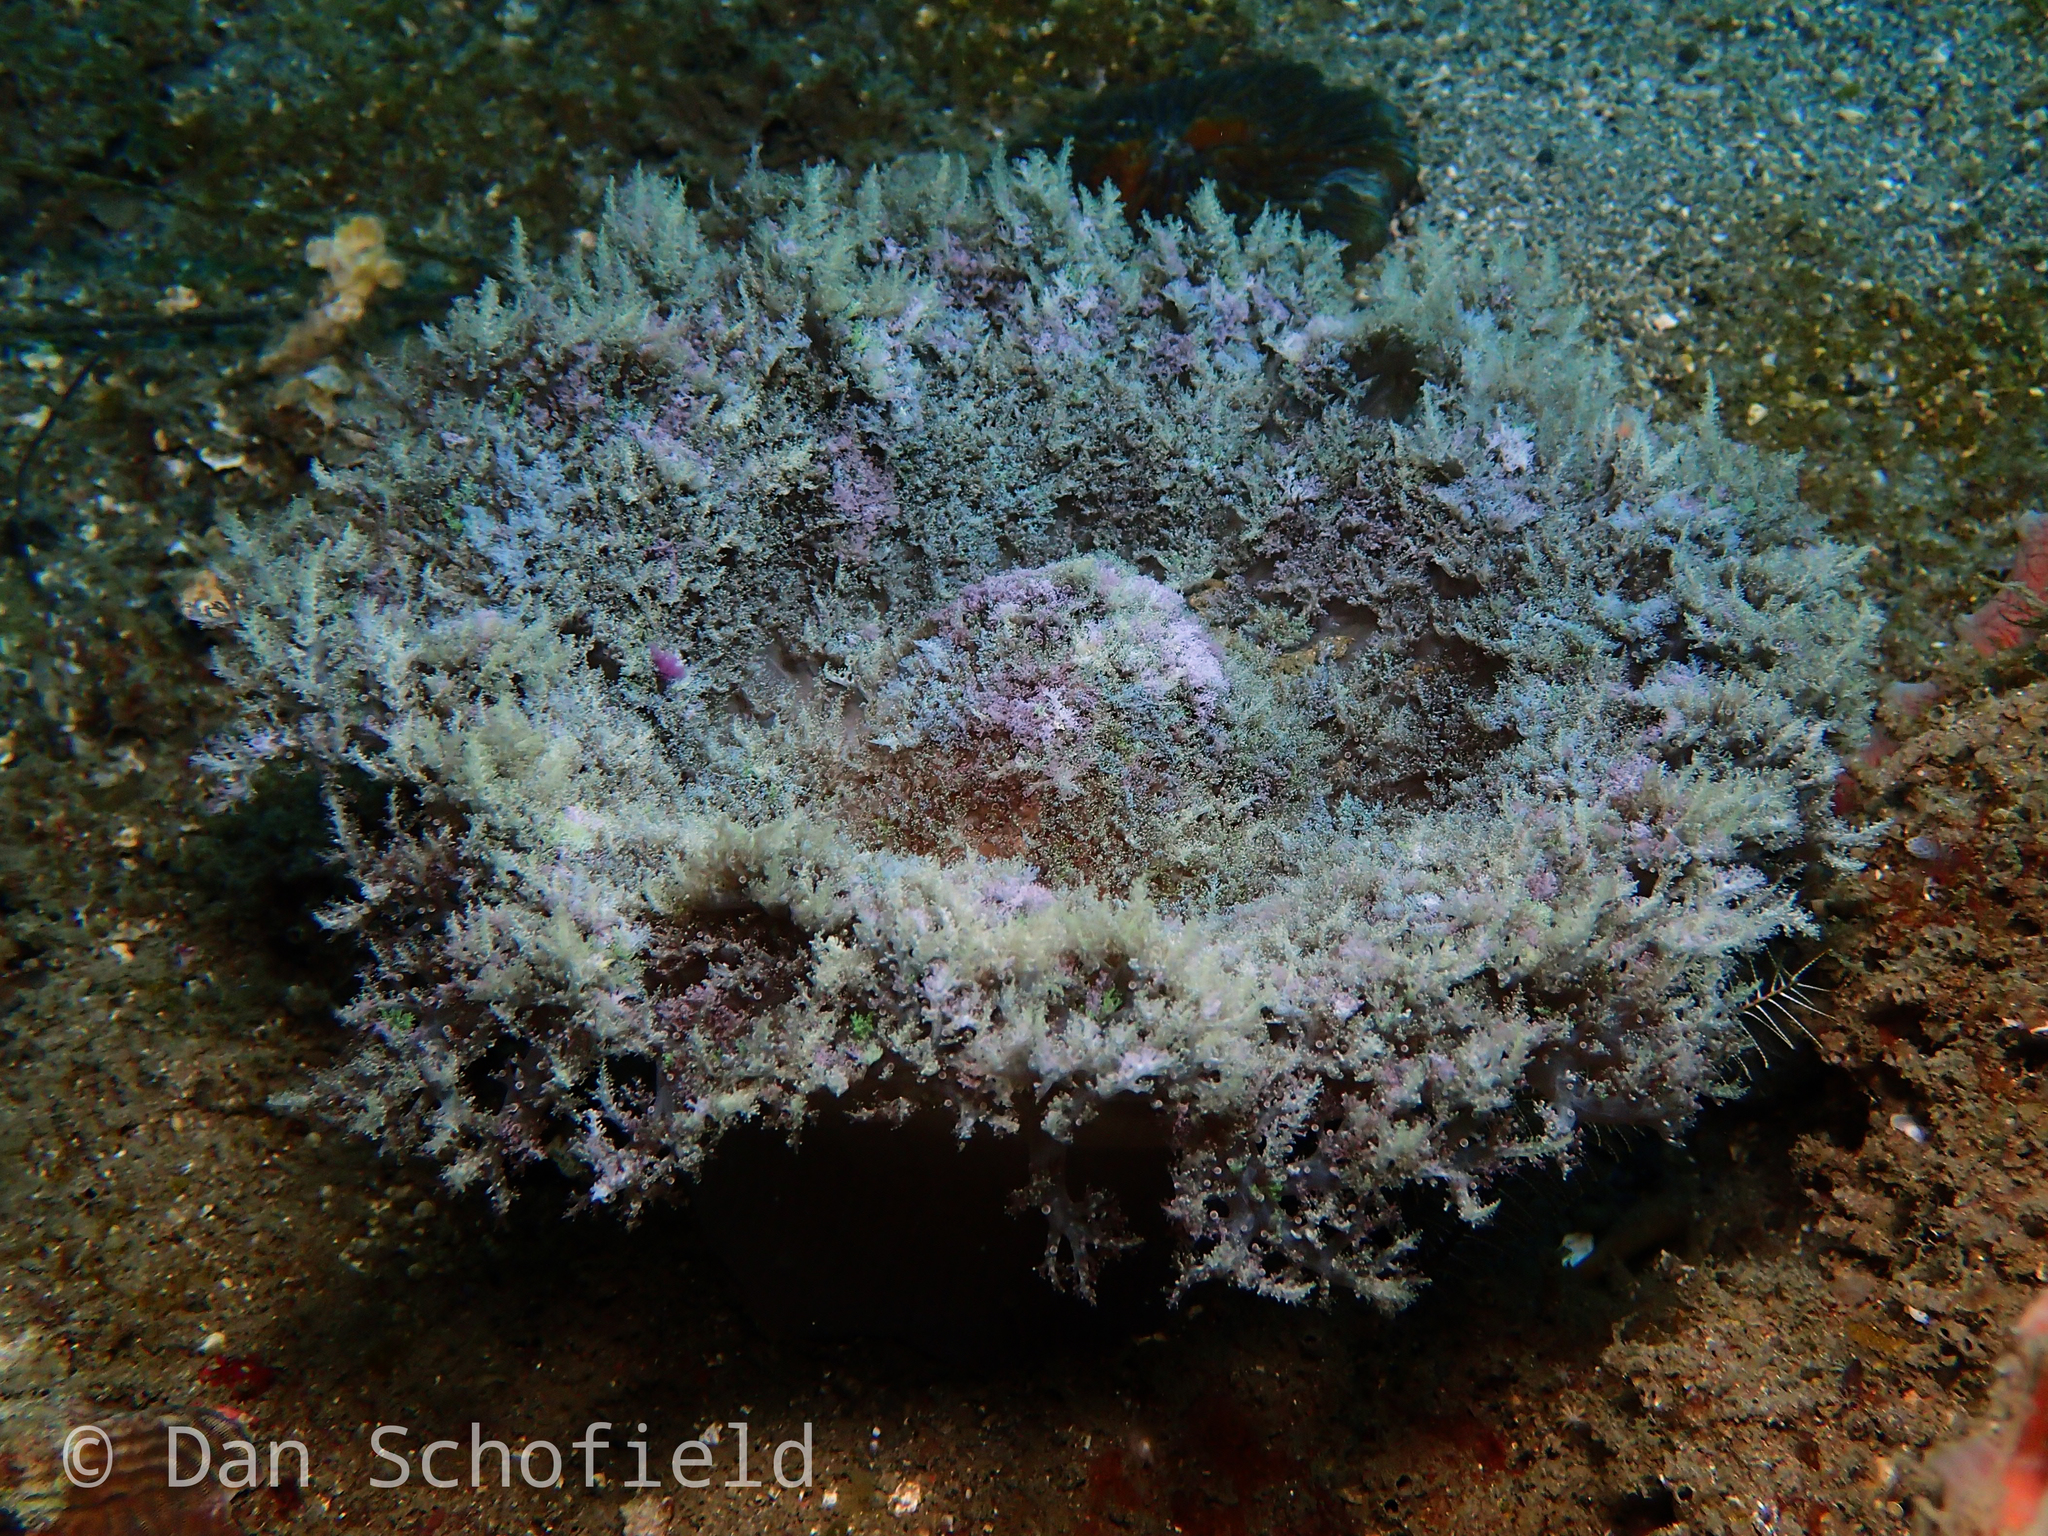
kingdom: Animalia
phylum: Cnidaria
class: Anthozoa
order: Actiniaria
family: Aliciidae
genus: Phyllodiscus
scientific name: Phyllodiscus semoni
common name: Night anemone
